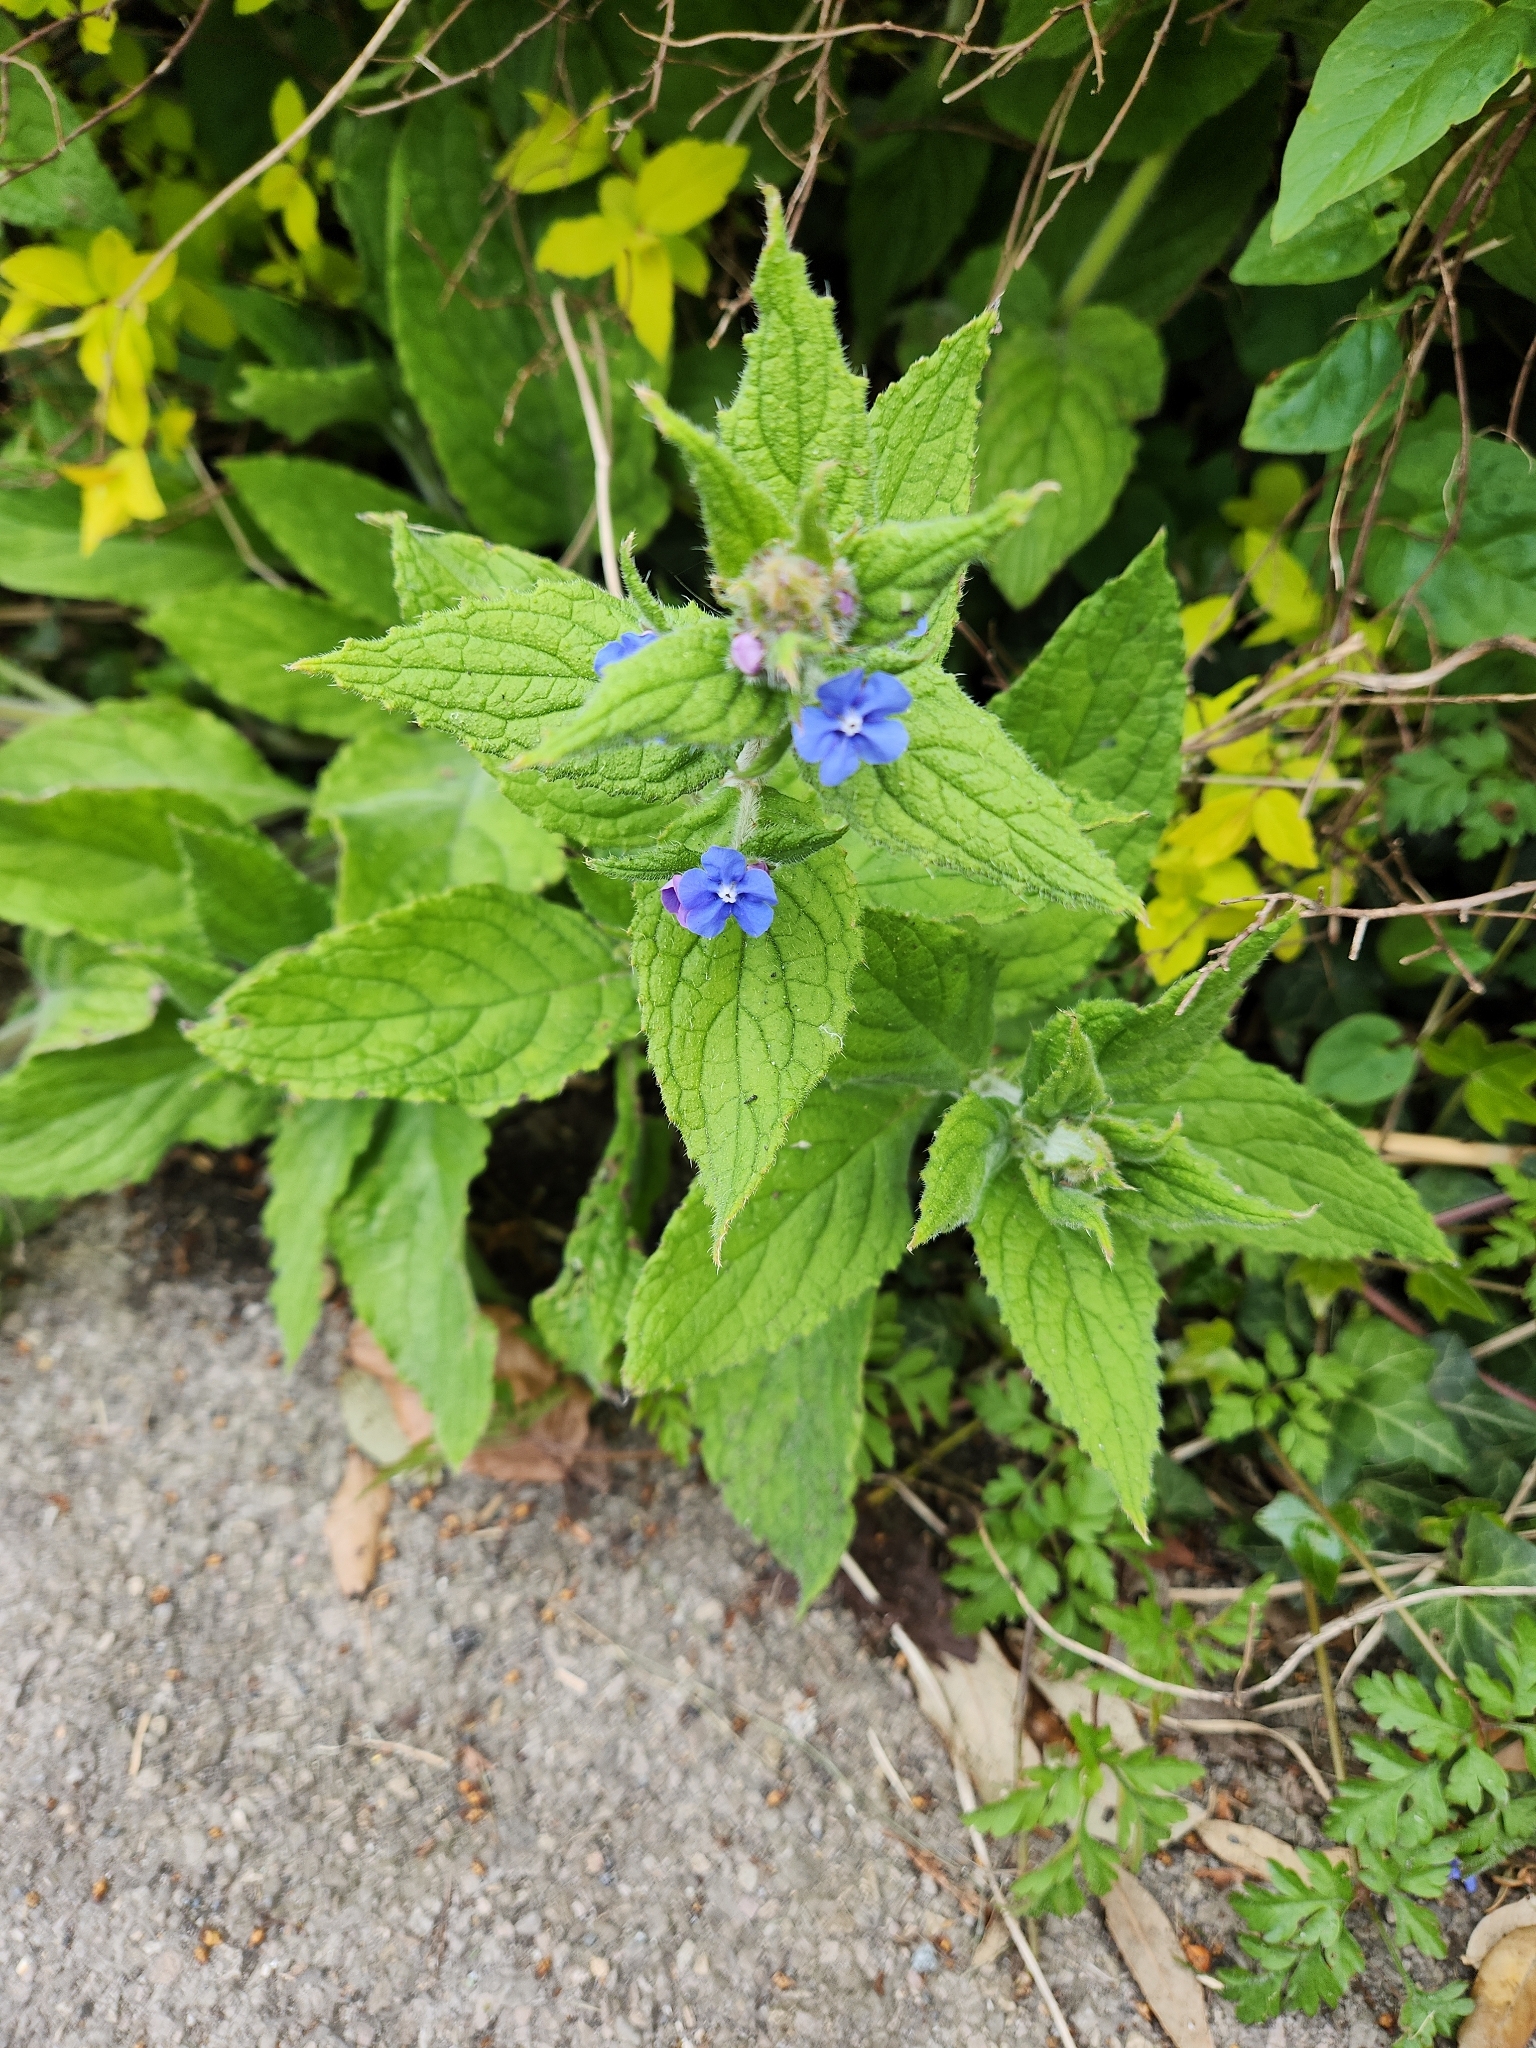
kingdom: Plantae
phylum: Tracheophyta
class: Magnoliopsida
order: Boraginales
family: Boraginaceae
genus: Pentaglottis
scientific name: Pentaglottis sempervirens
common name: Green alkanet
